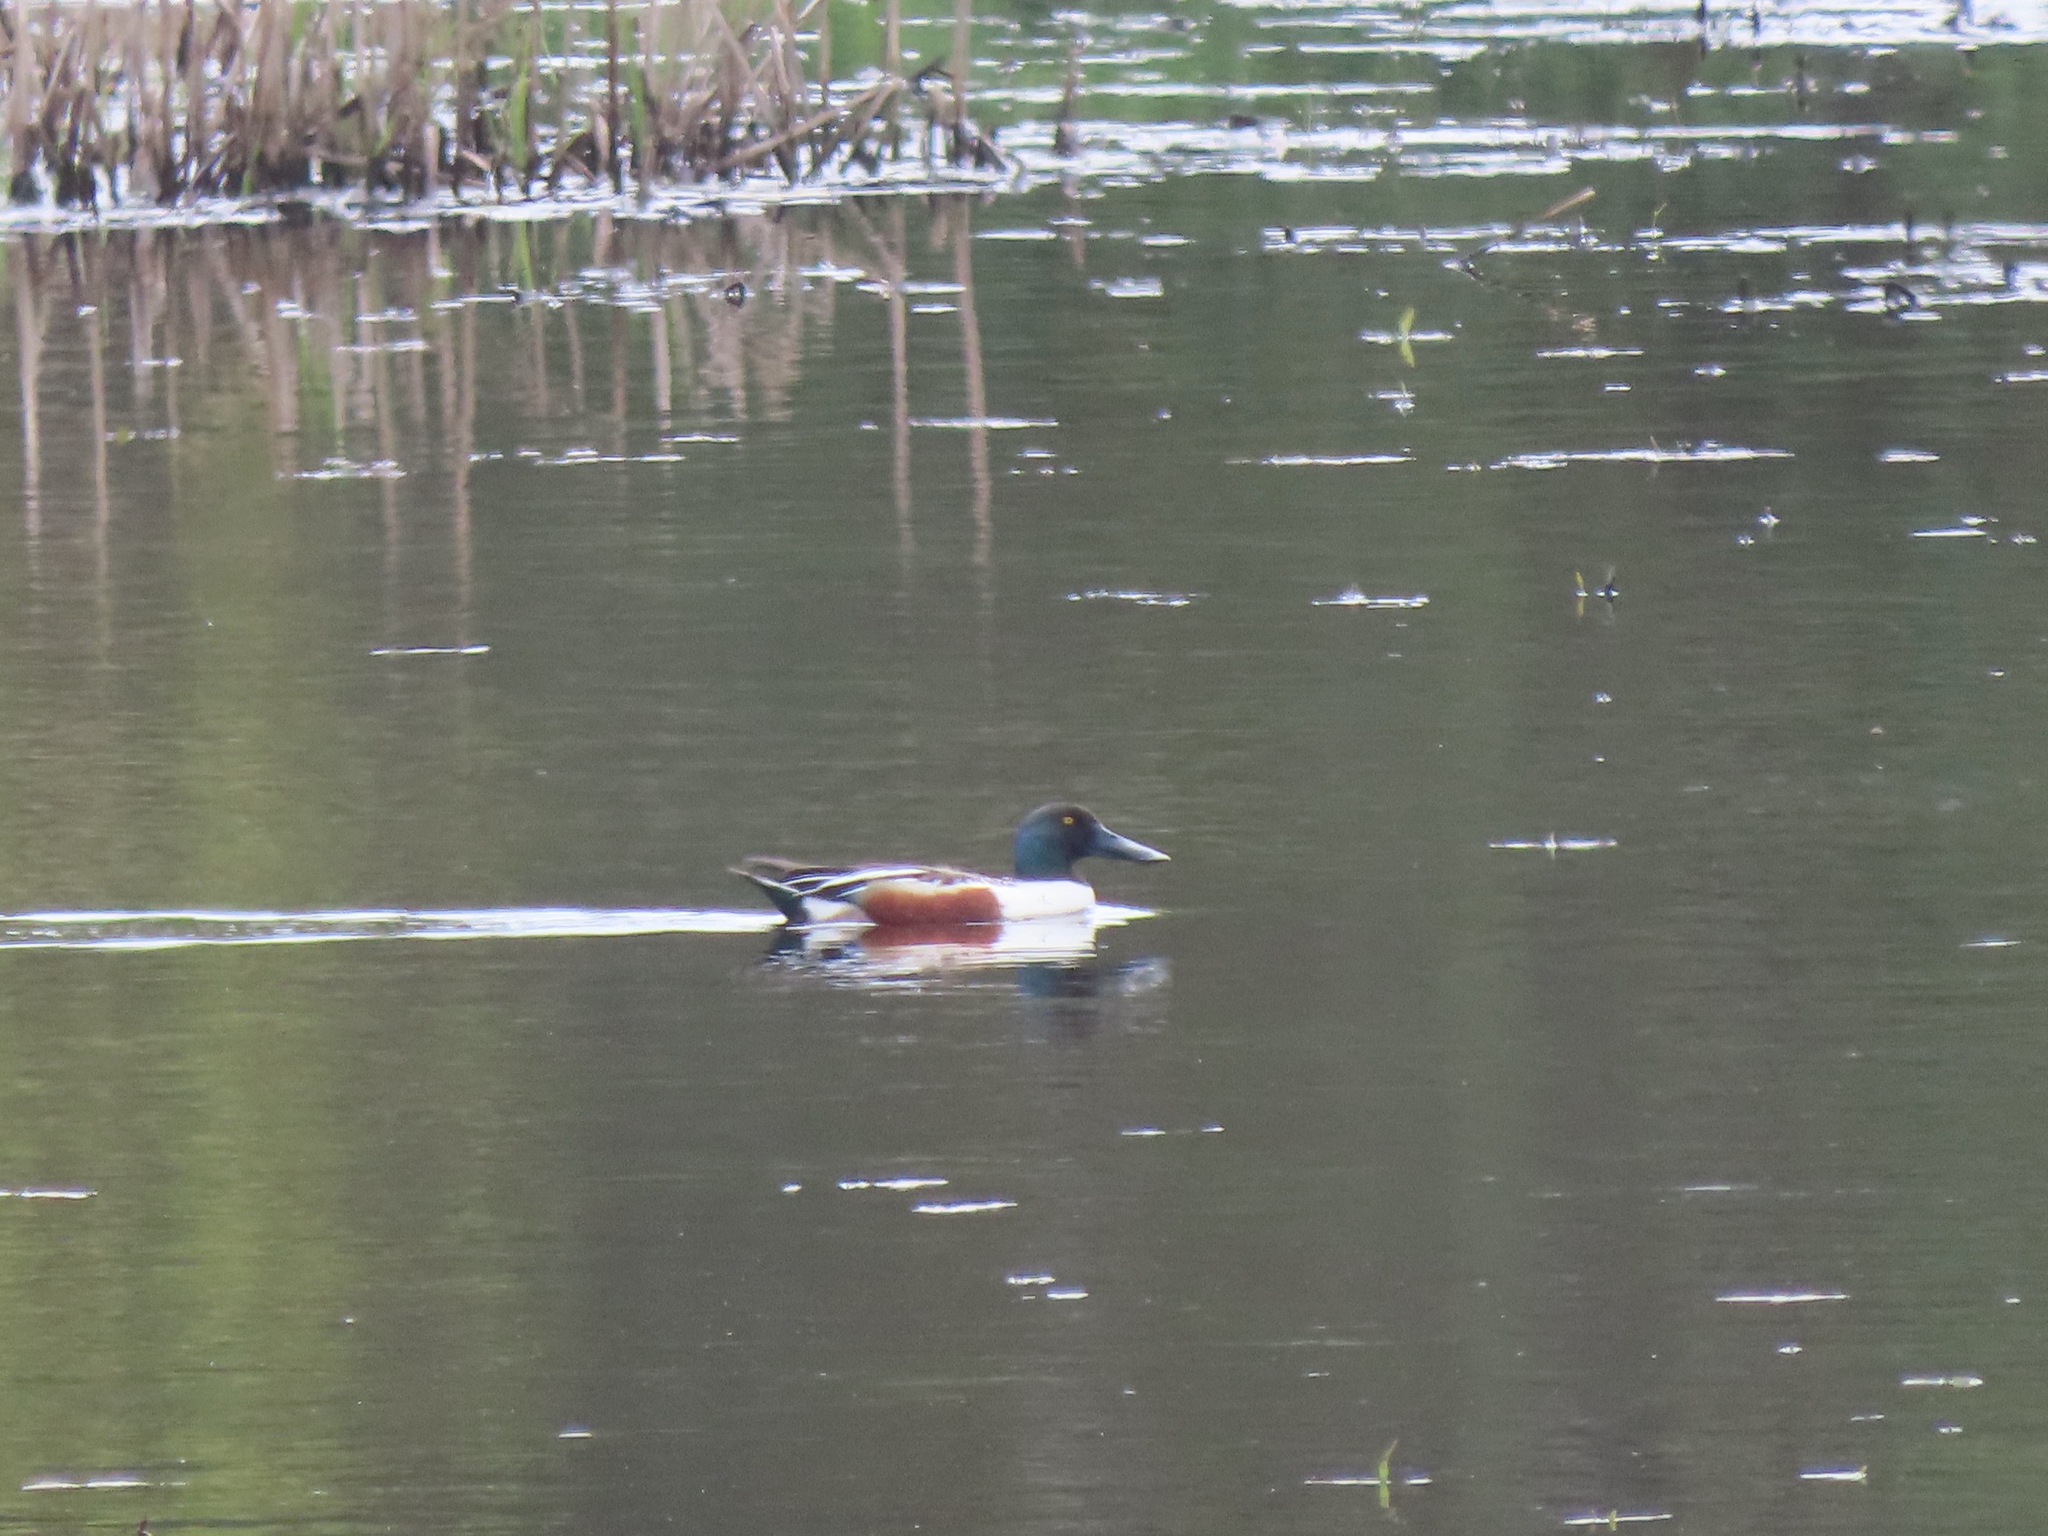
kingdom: Animalia
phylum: Chordata
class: Aves
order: Anseriformes
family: Anatidae
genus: Spatula
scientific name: Spatula clypeata
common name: Northern shoveler
